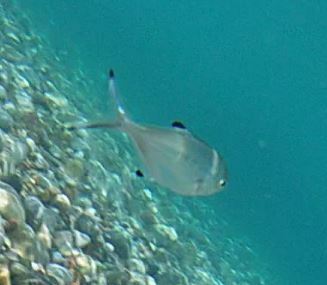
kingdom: Animalia
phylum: Chordata
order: Perciformes
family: Carangidae
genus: Trachinotus
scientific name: Trachinotus ovatus
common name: Pompano
